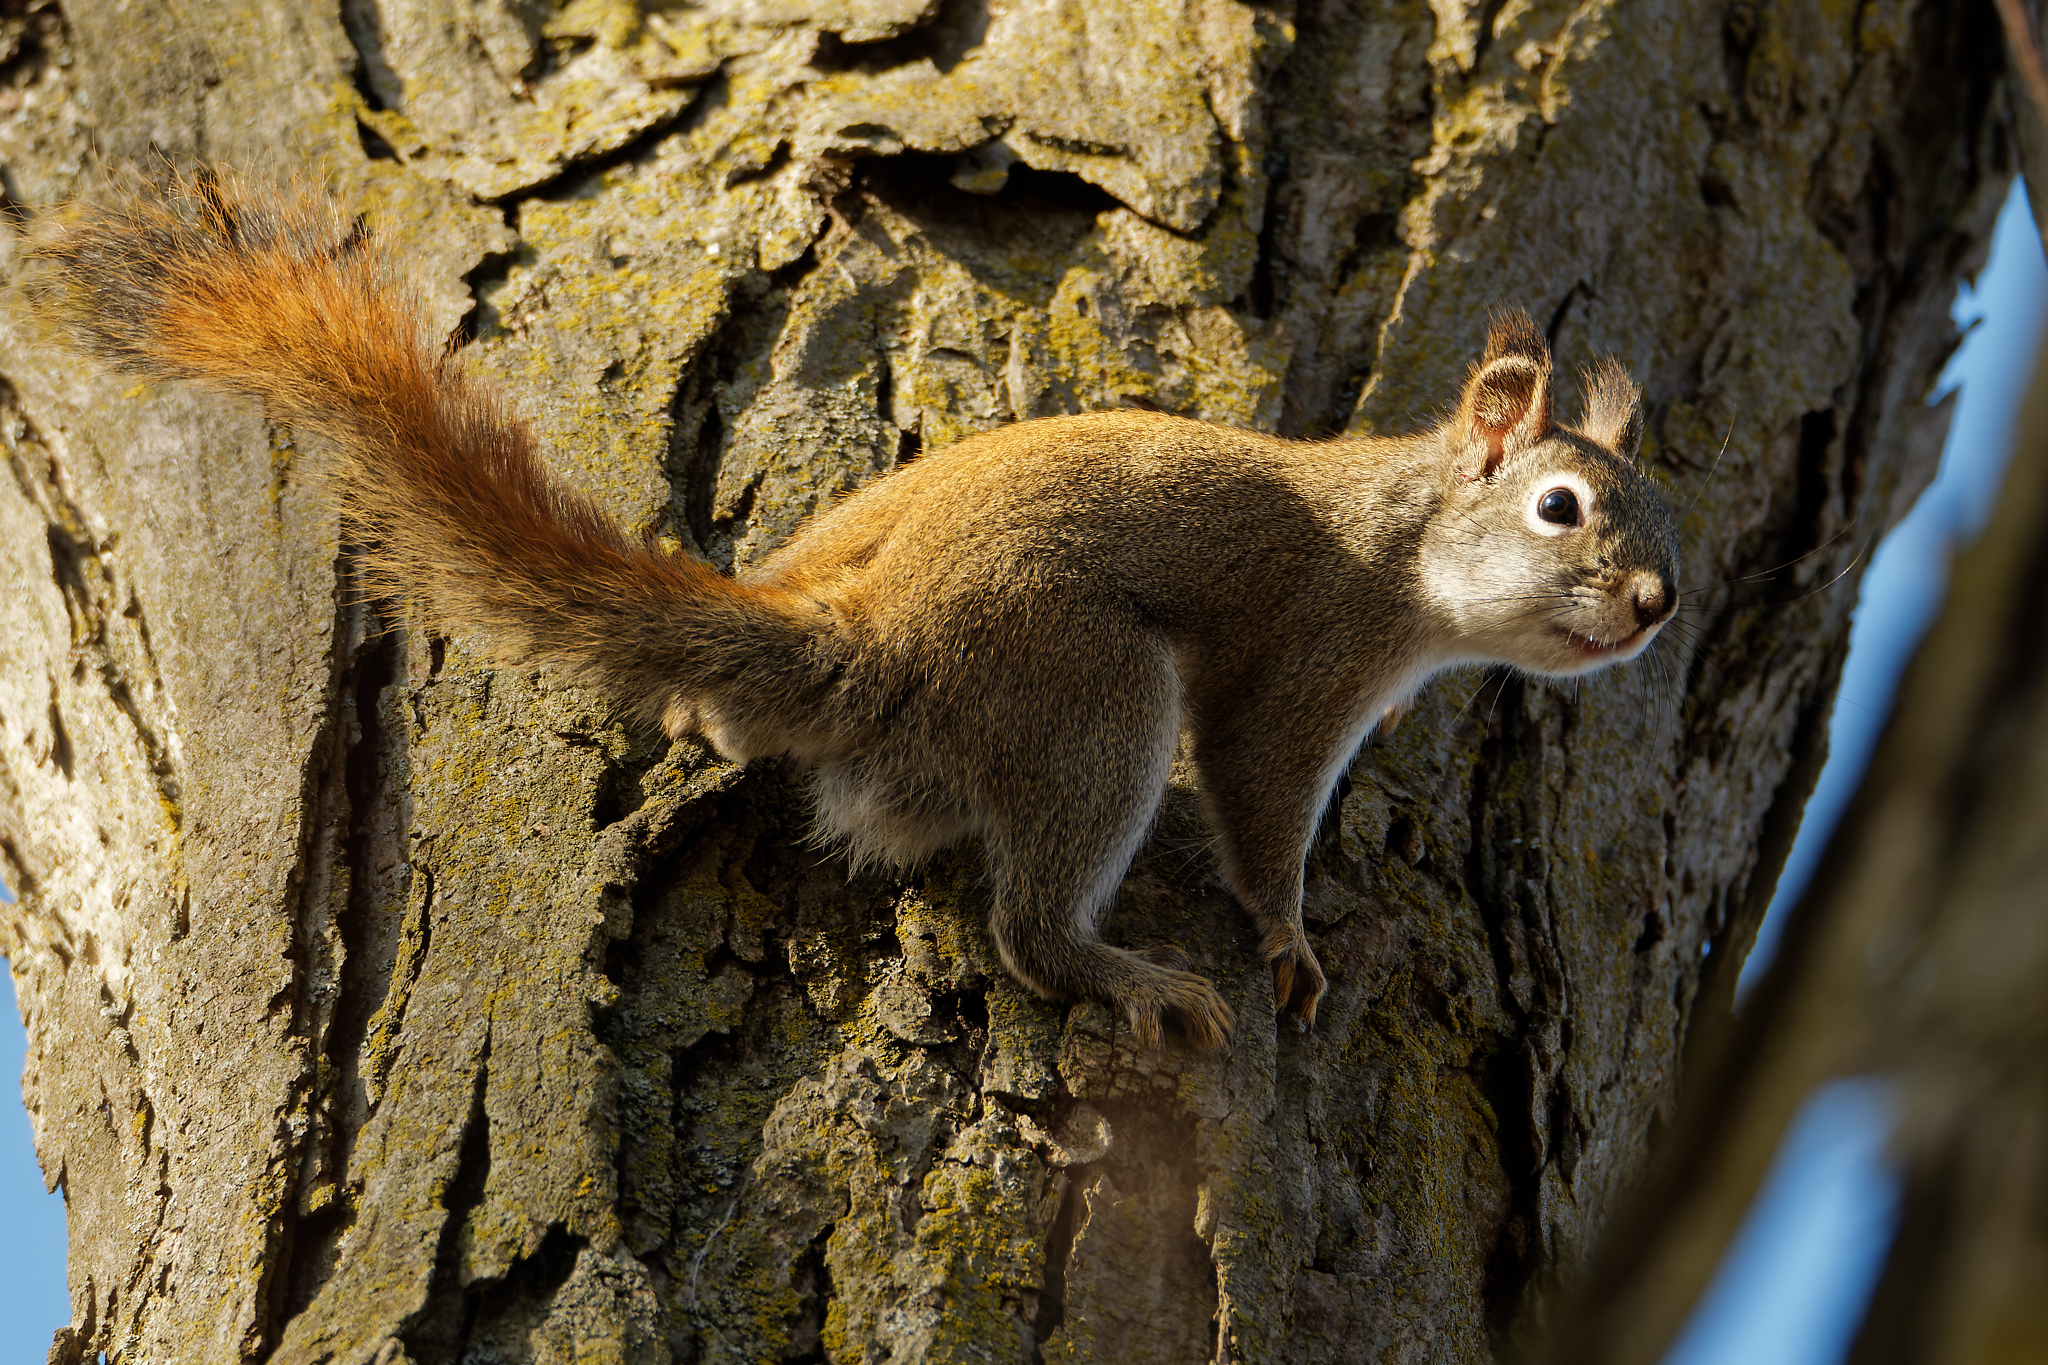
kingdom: Animalia
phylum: Chordata
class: Mammalia
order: Rodentia
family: Sciuridae
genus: Tamiasciurus
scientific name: Tamiasciurus hudsonicus
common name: Red squirrel
